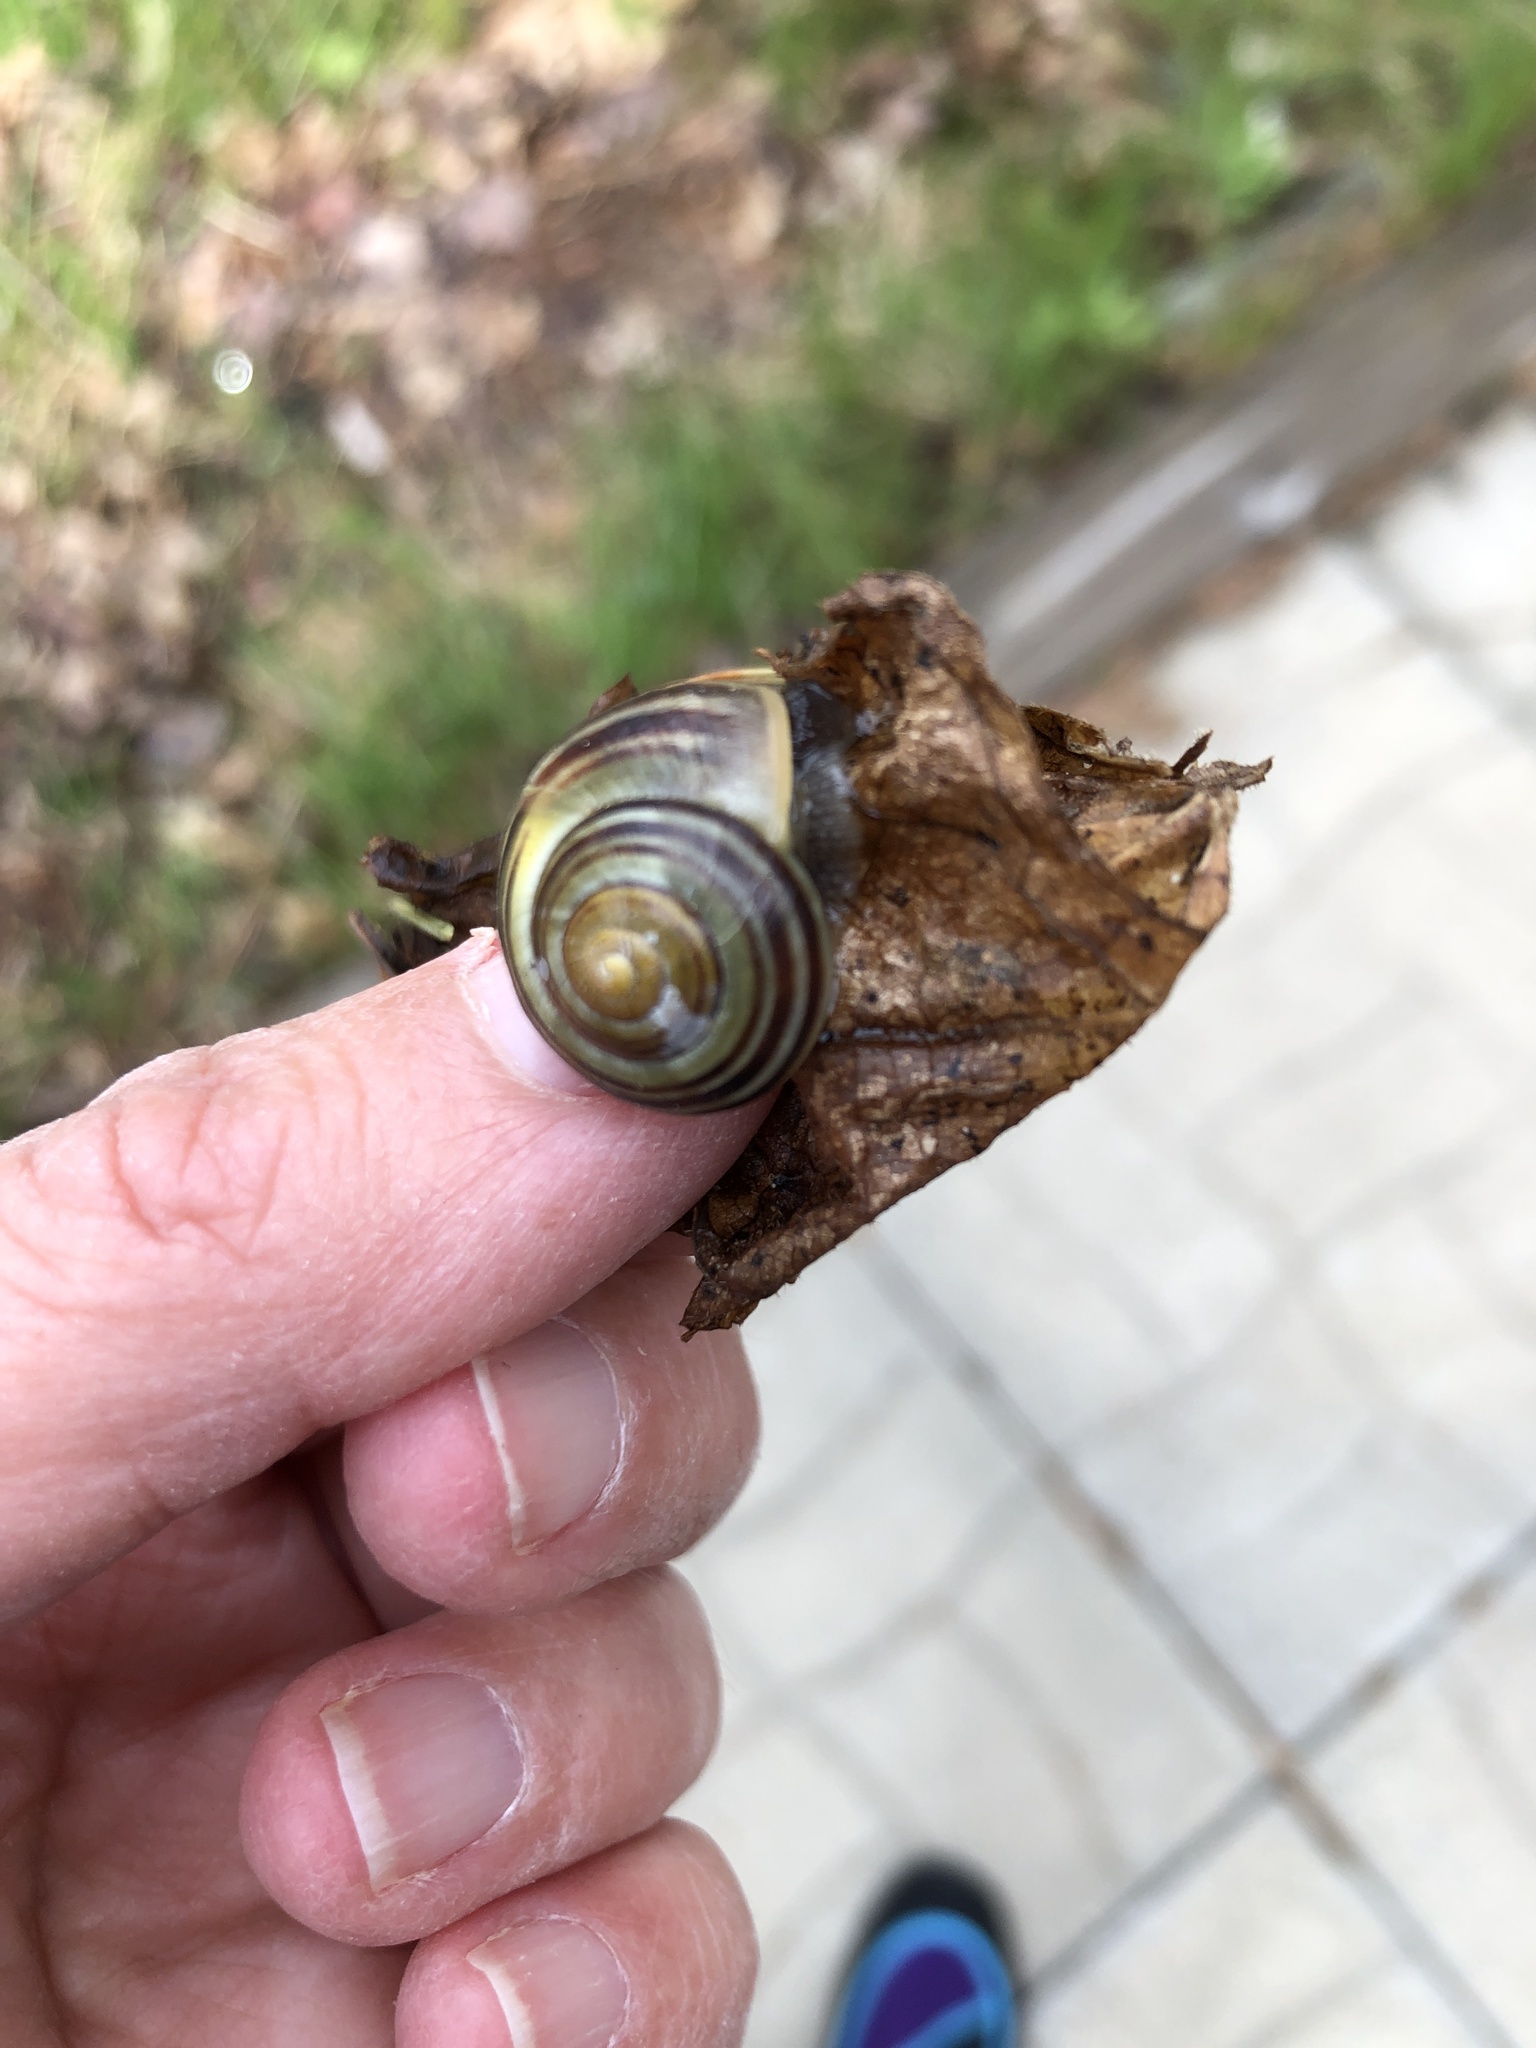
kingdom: Animalia
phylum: Mollusca
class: Gastropoda
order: Stylommatophora
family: Helicidae
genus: Cepaea
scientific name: Cepaea nemoralis
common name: Grovesnail
